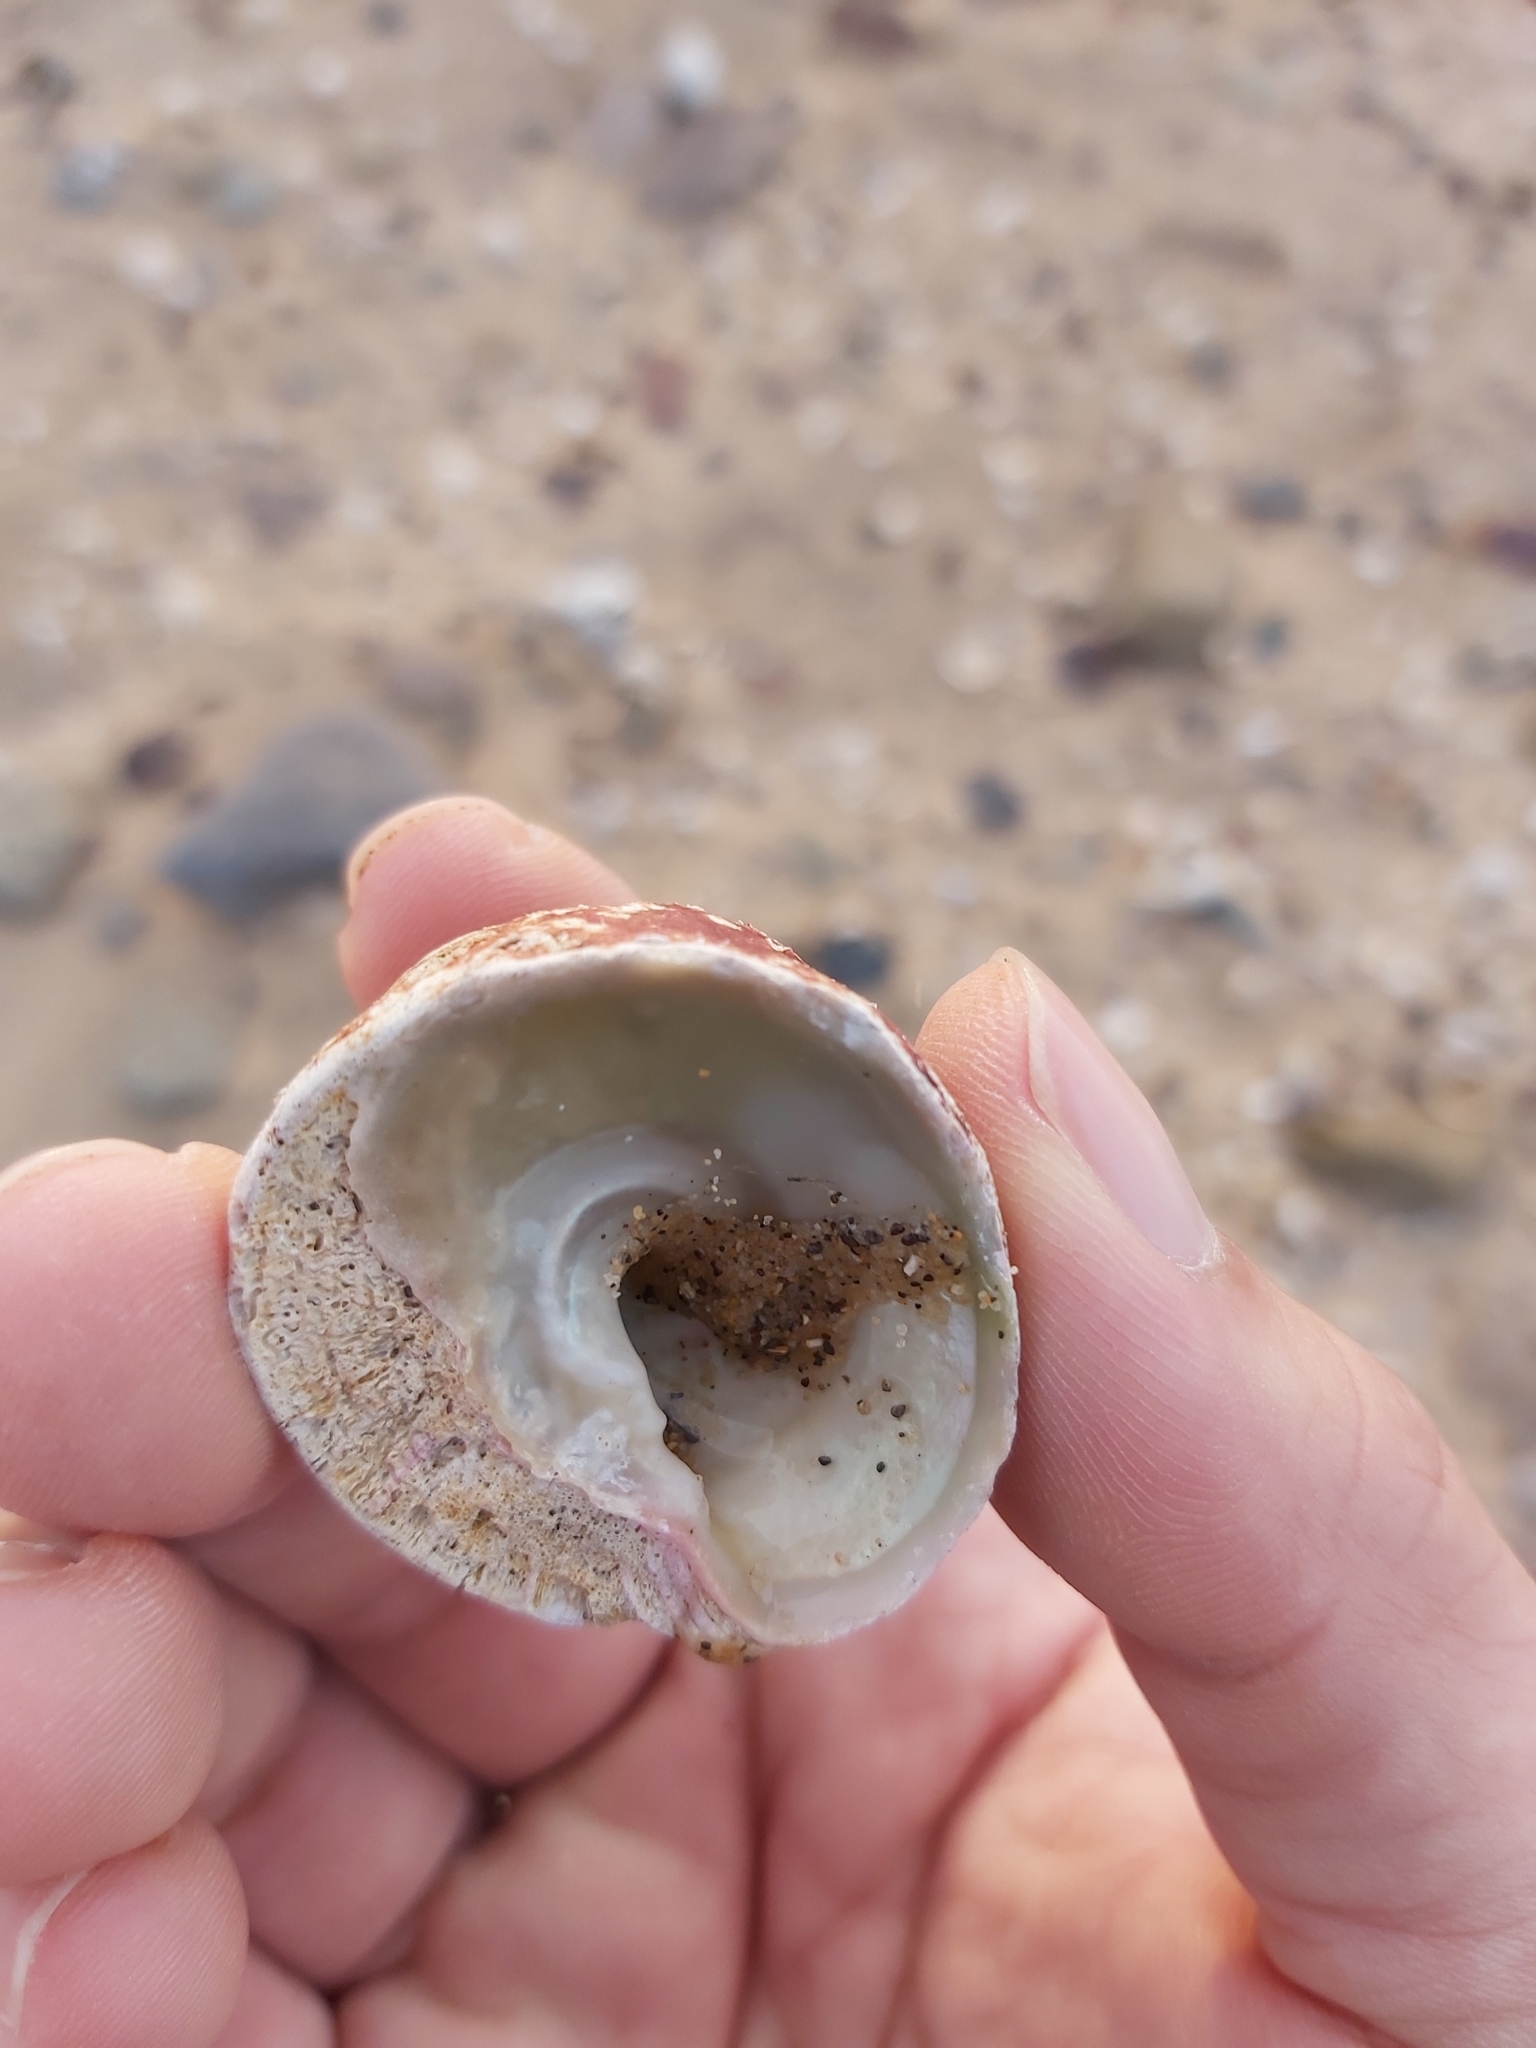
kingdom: Animalia
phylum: Mollusca
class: Gastropoda
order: Trochida
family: Turbinidae
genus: Astralium
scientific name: Astralium tentoriiforme
